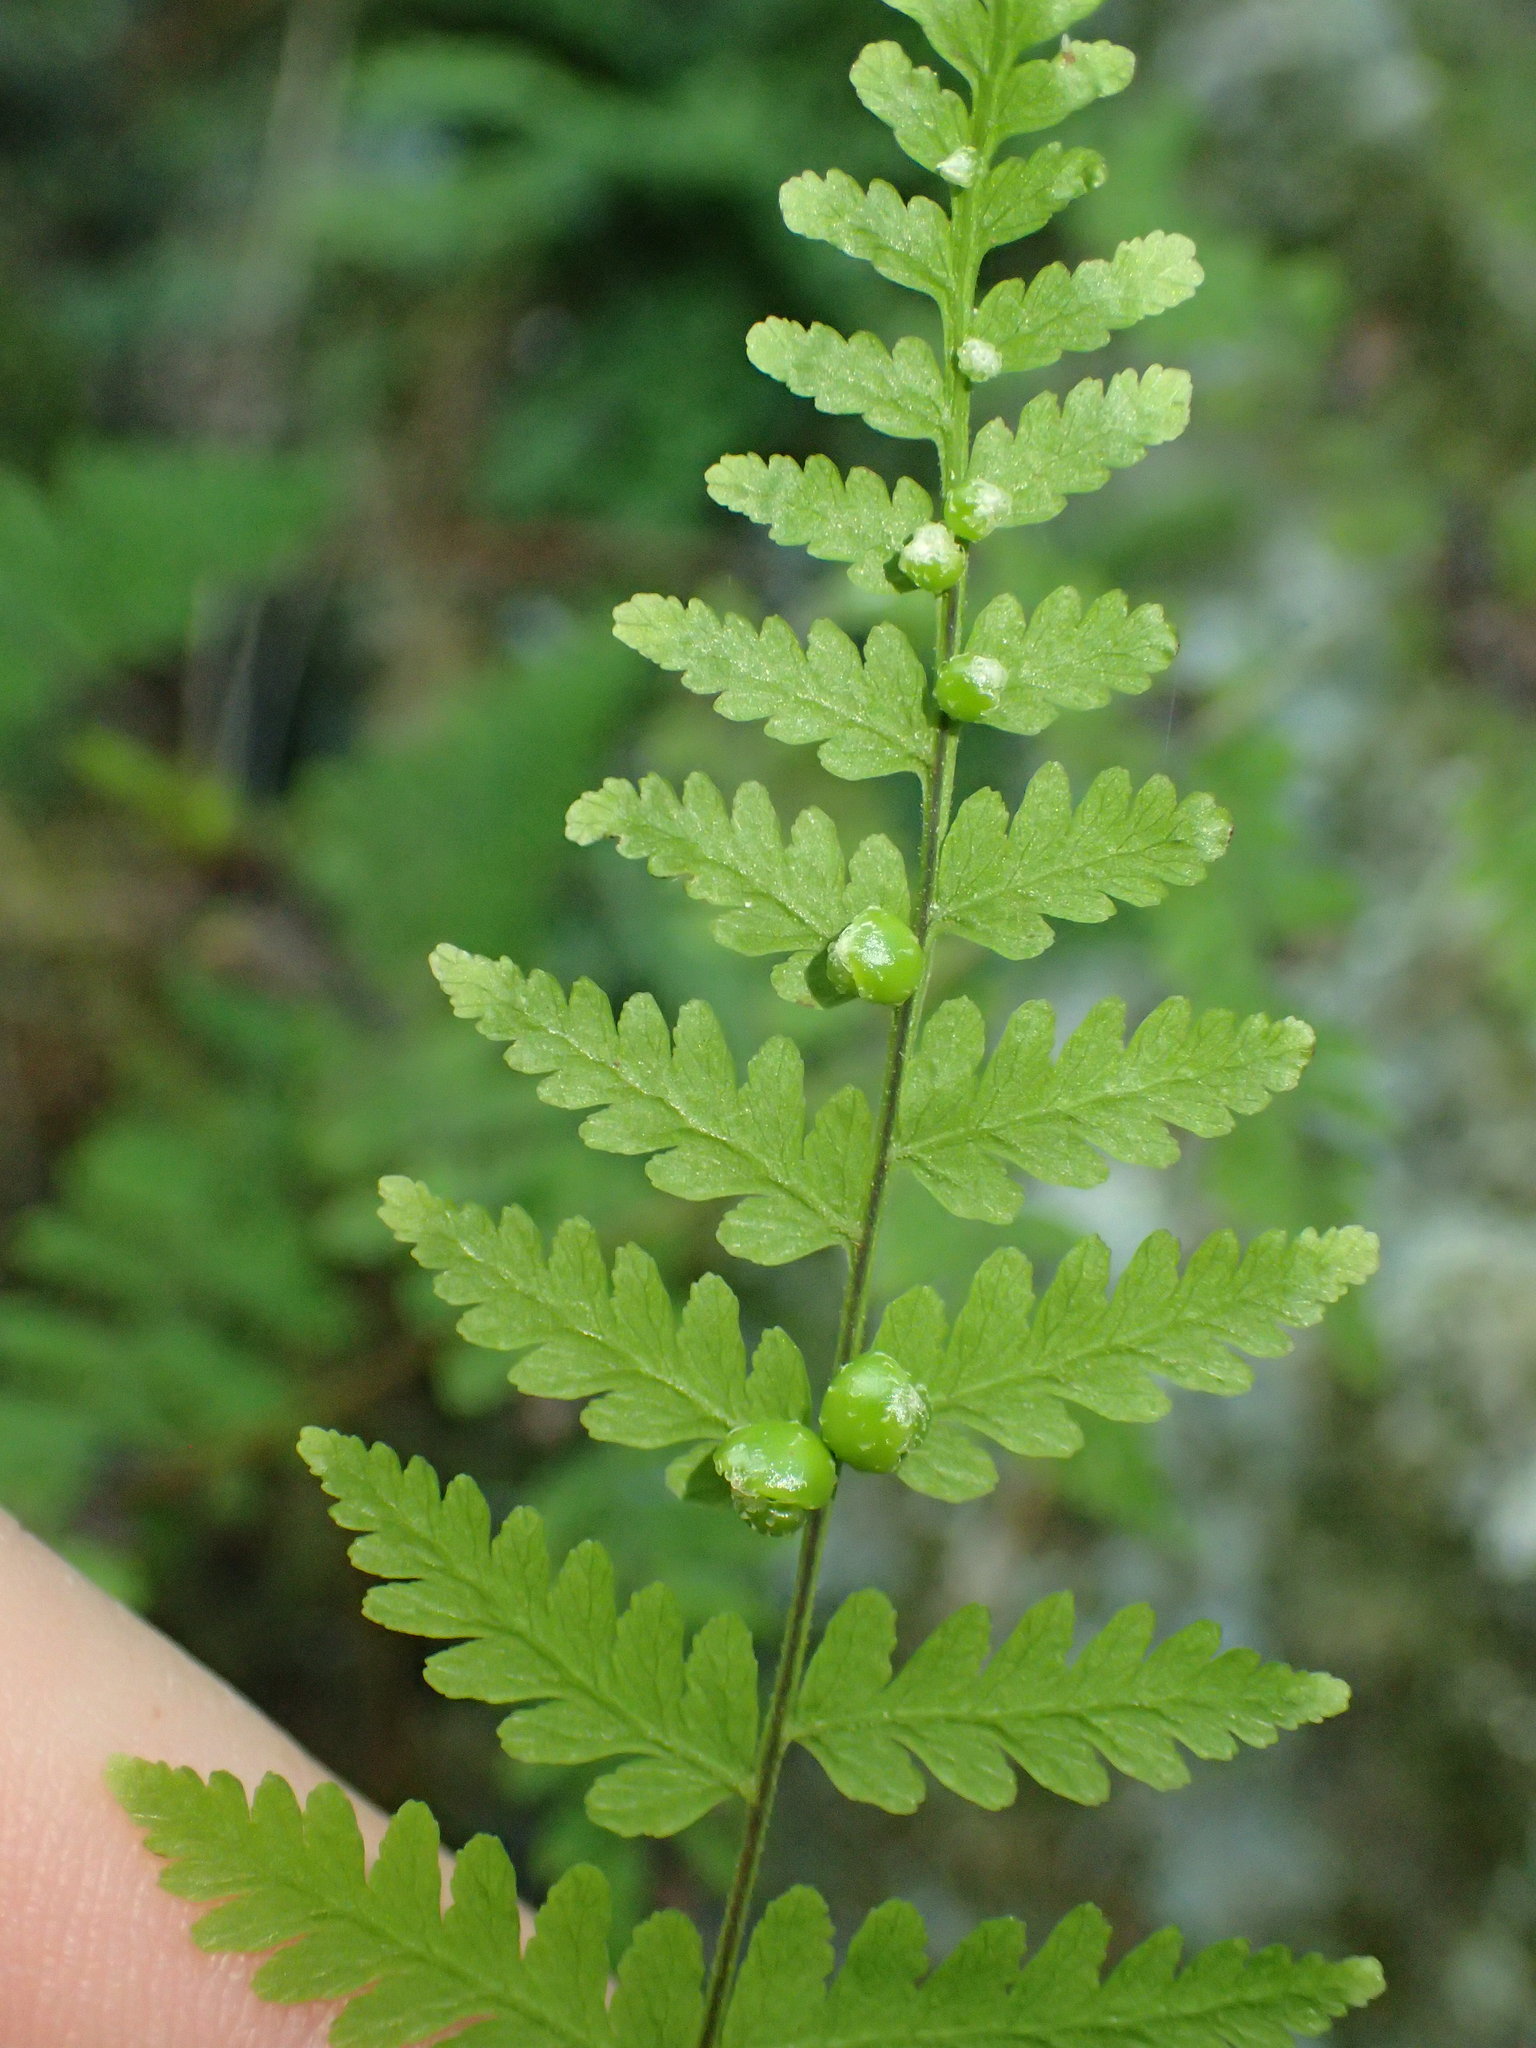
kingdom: Plantae
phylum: Tracheophyta
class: Polypodiopsida
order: Polypodiales
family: Cystopteridaceae
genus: Cystopteris
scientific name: Cystopteris bulbifera
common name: Bulblet bladder fern
